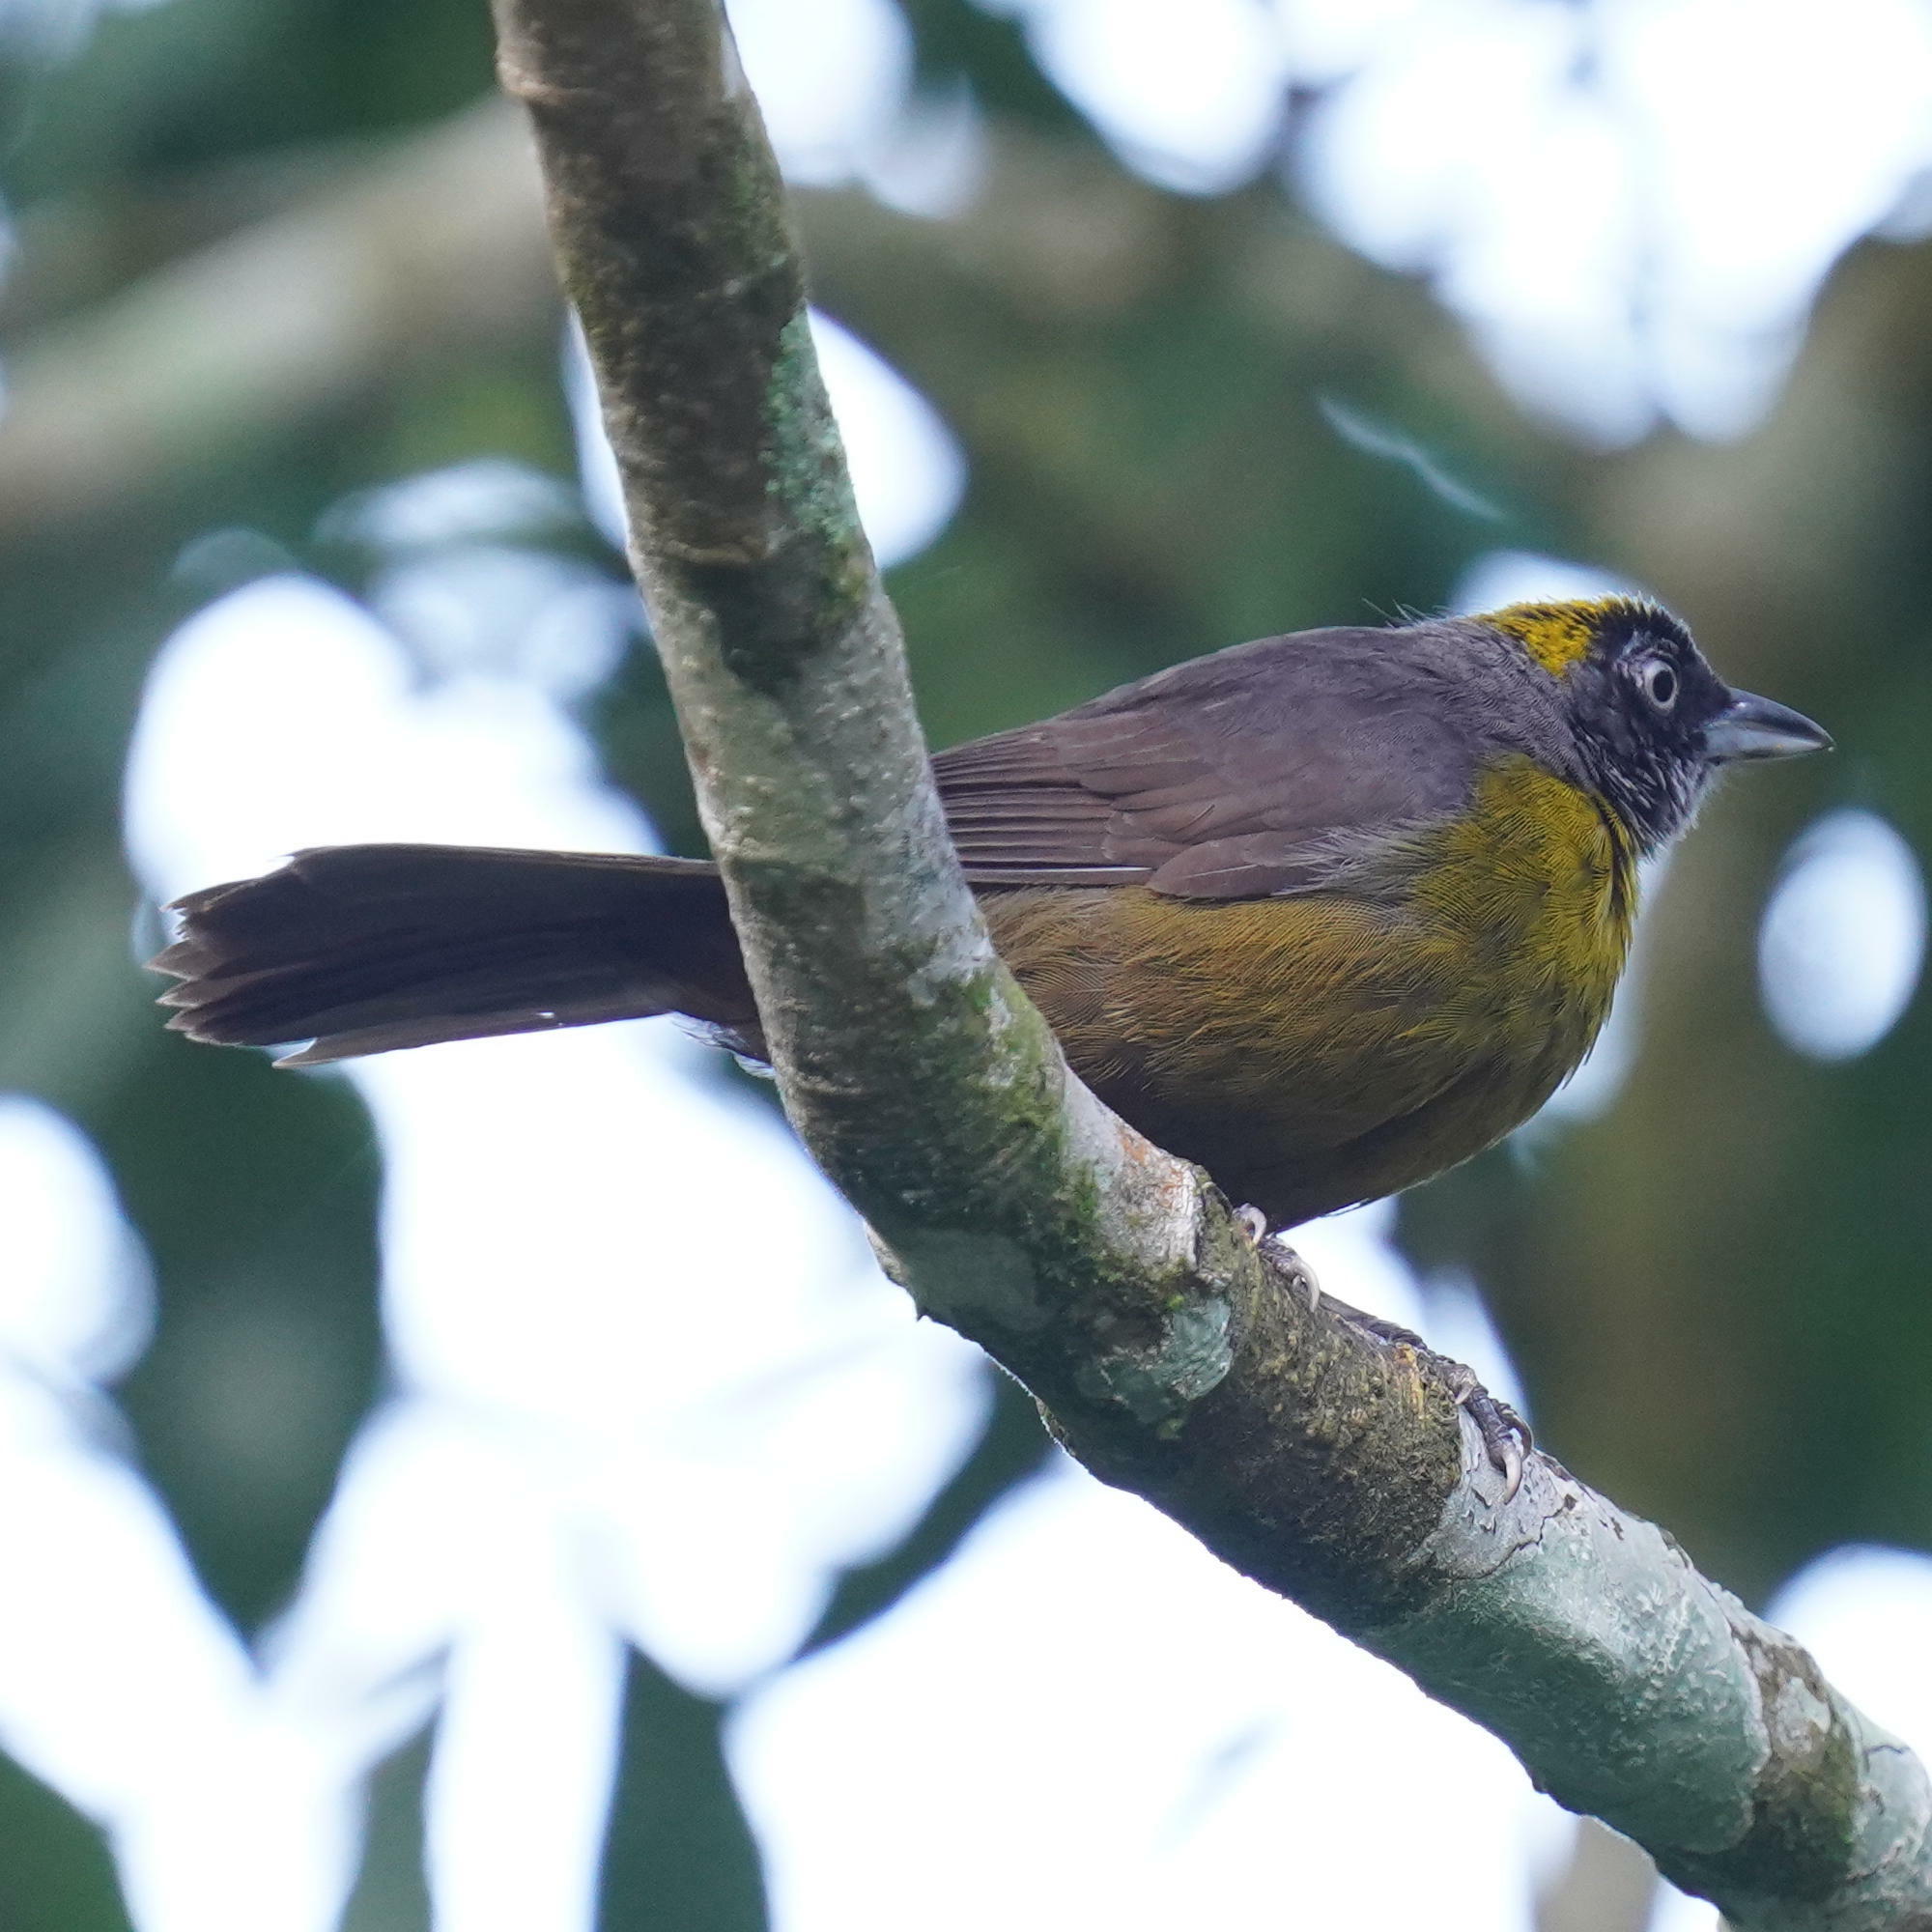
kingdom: Animalia
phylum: Chordata
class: Aves
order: Passeriformes
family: Mitrospingidae
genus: Mitrospingus
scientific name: Mitrospingus cassinii
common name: Dusky-faced tanager
